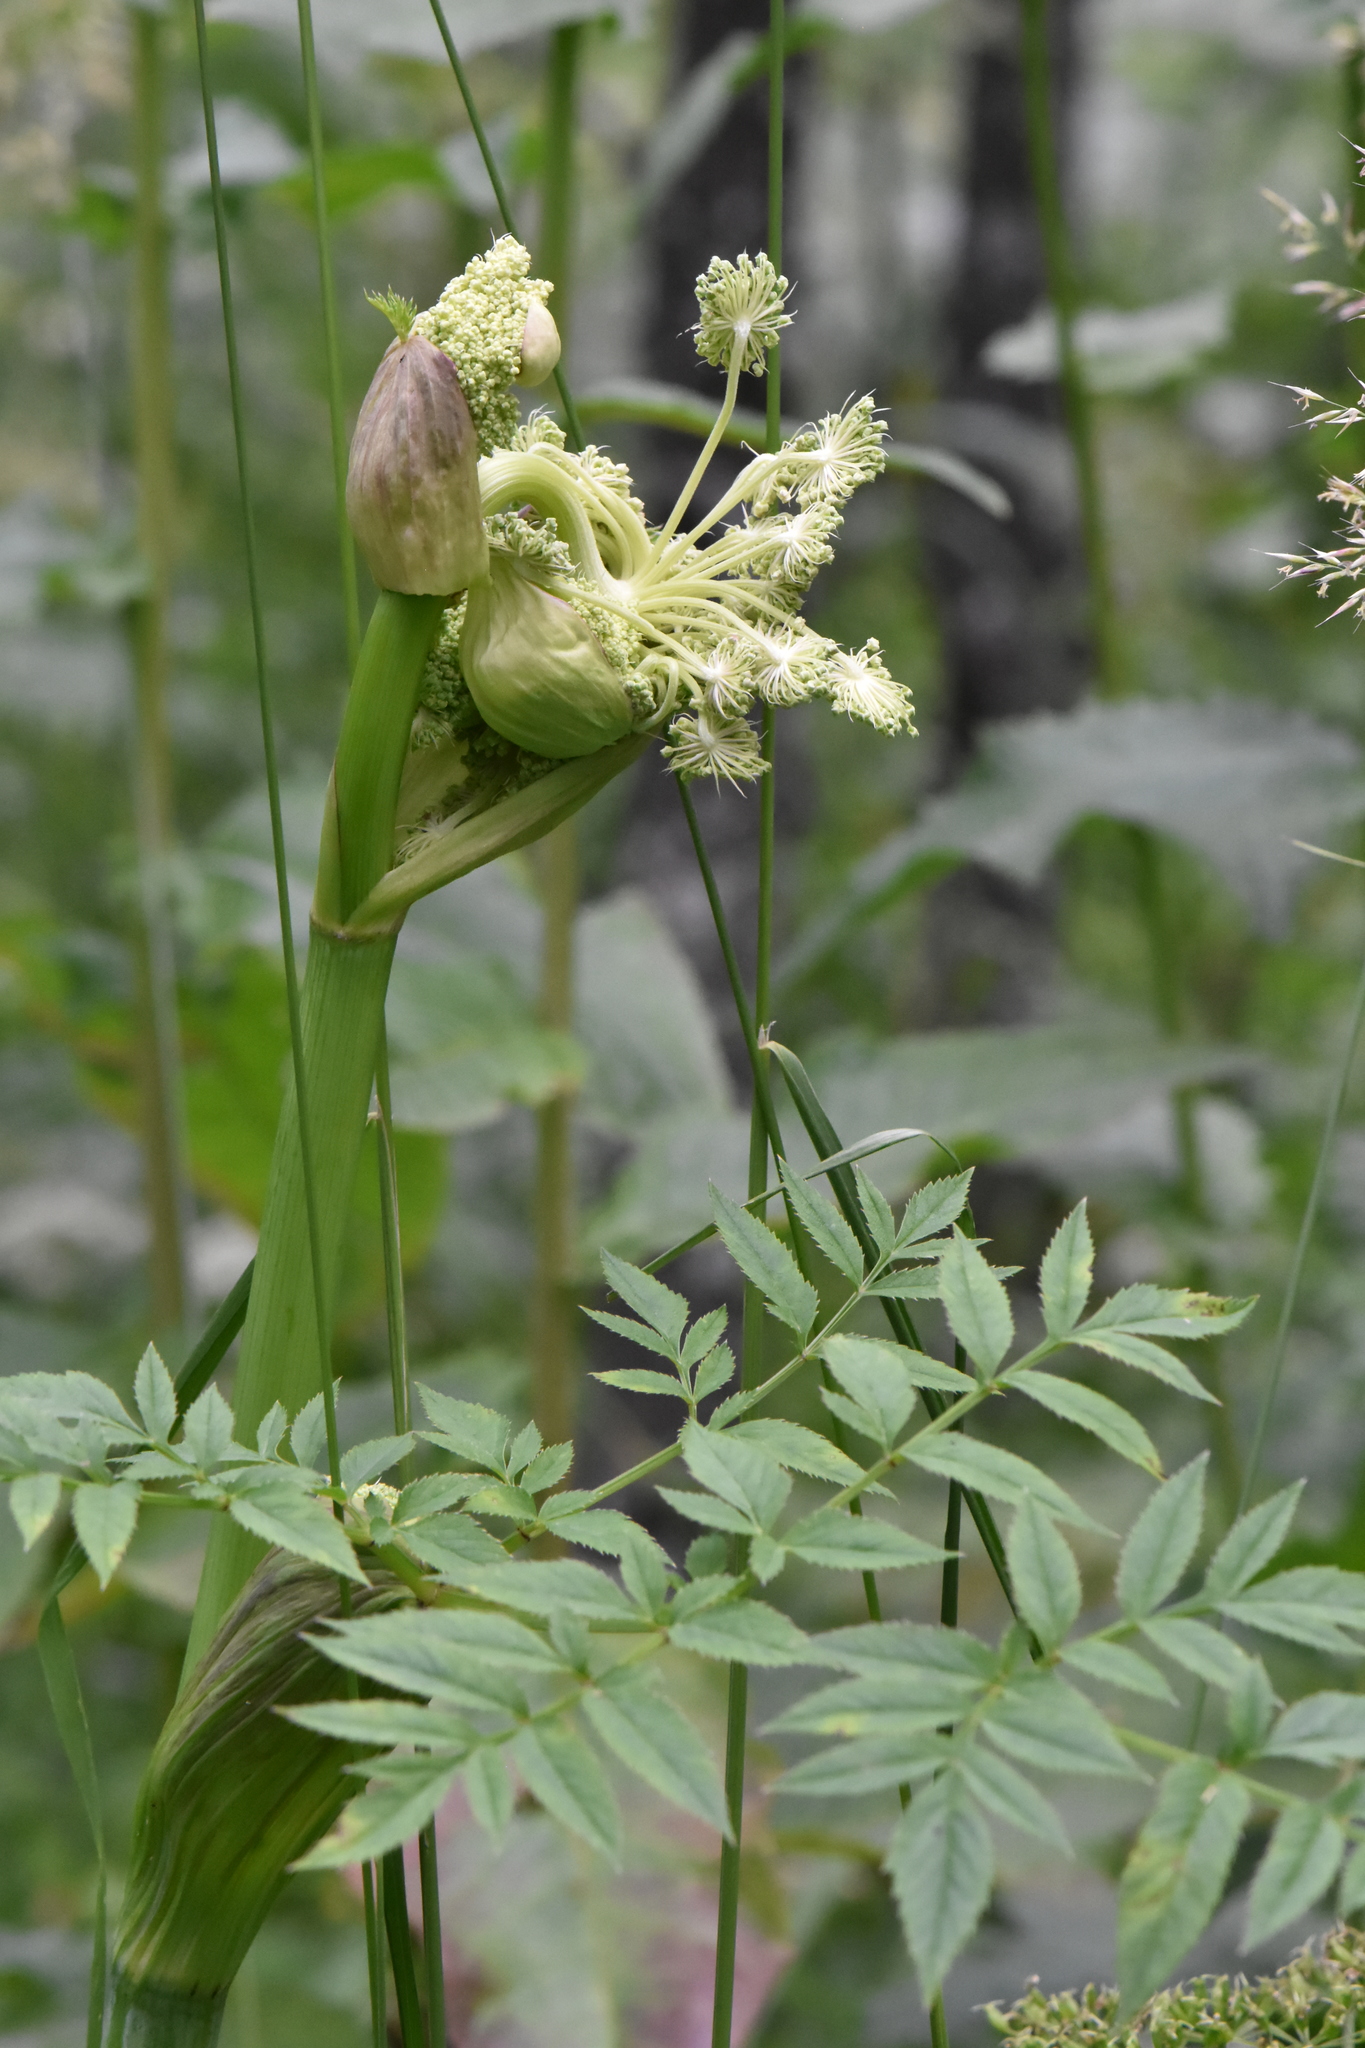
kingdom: Plantae
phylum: Tracheophyta
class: Magnoliopsida
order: Apiales
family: Apiaceae
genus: Angelica
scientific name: Angelica sylvestris
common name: Wild angelica
